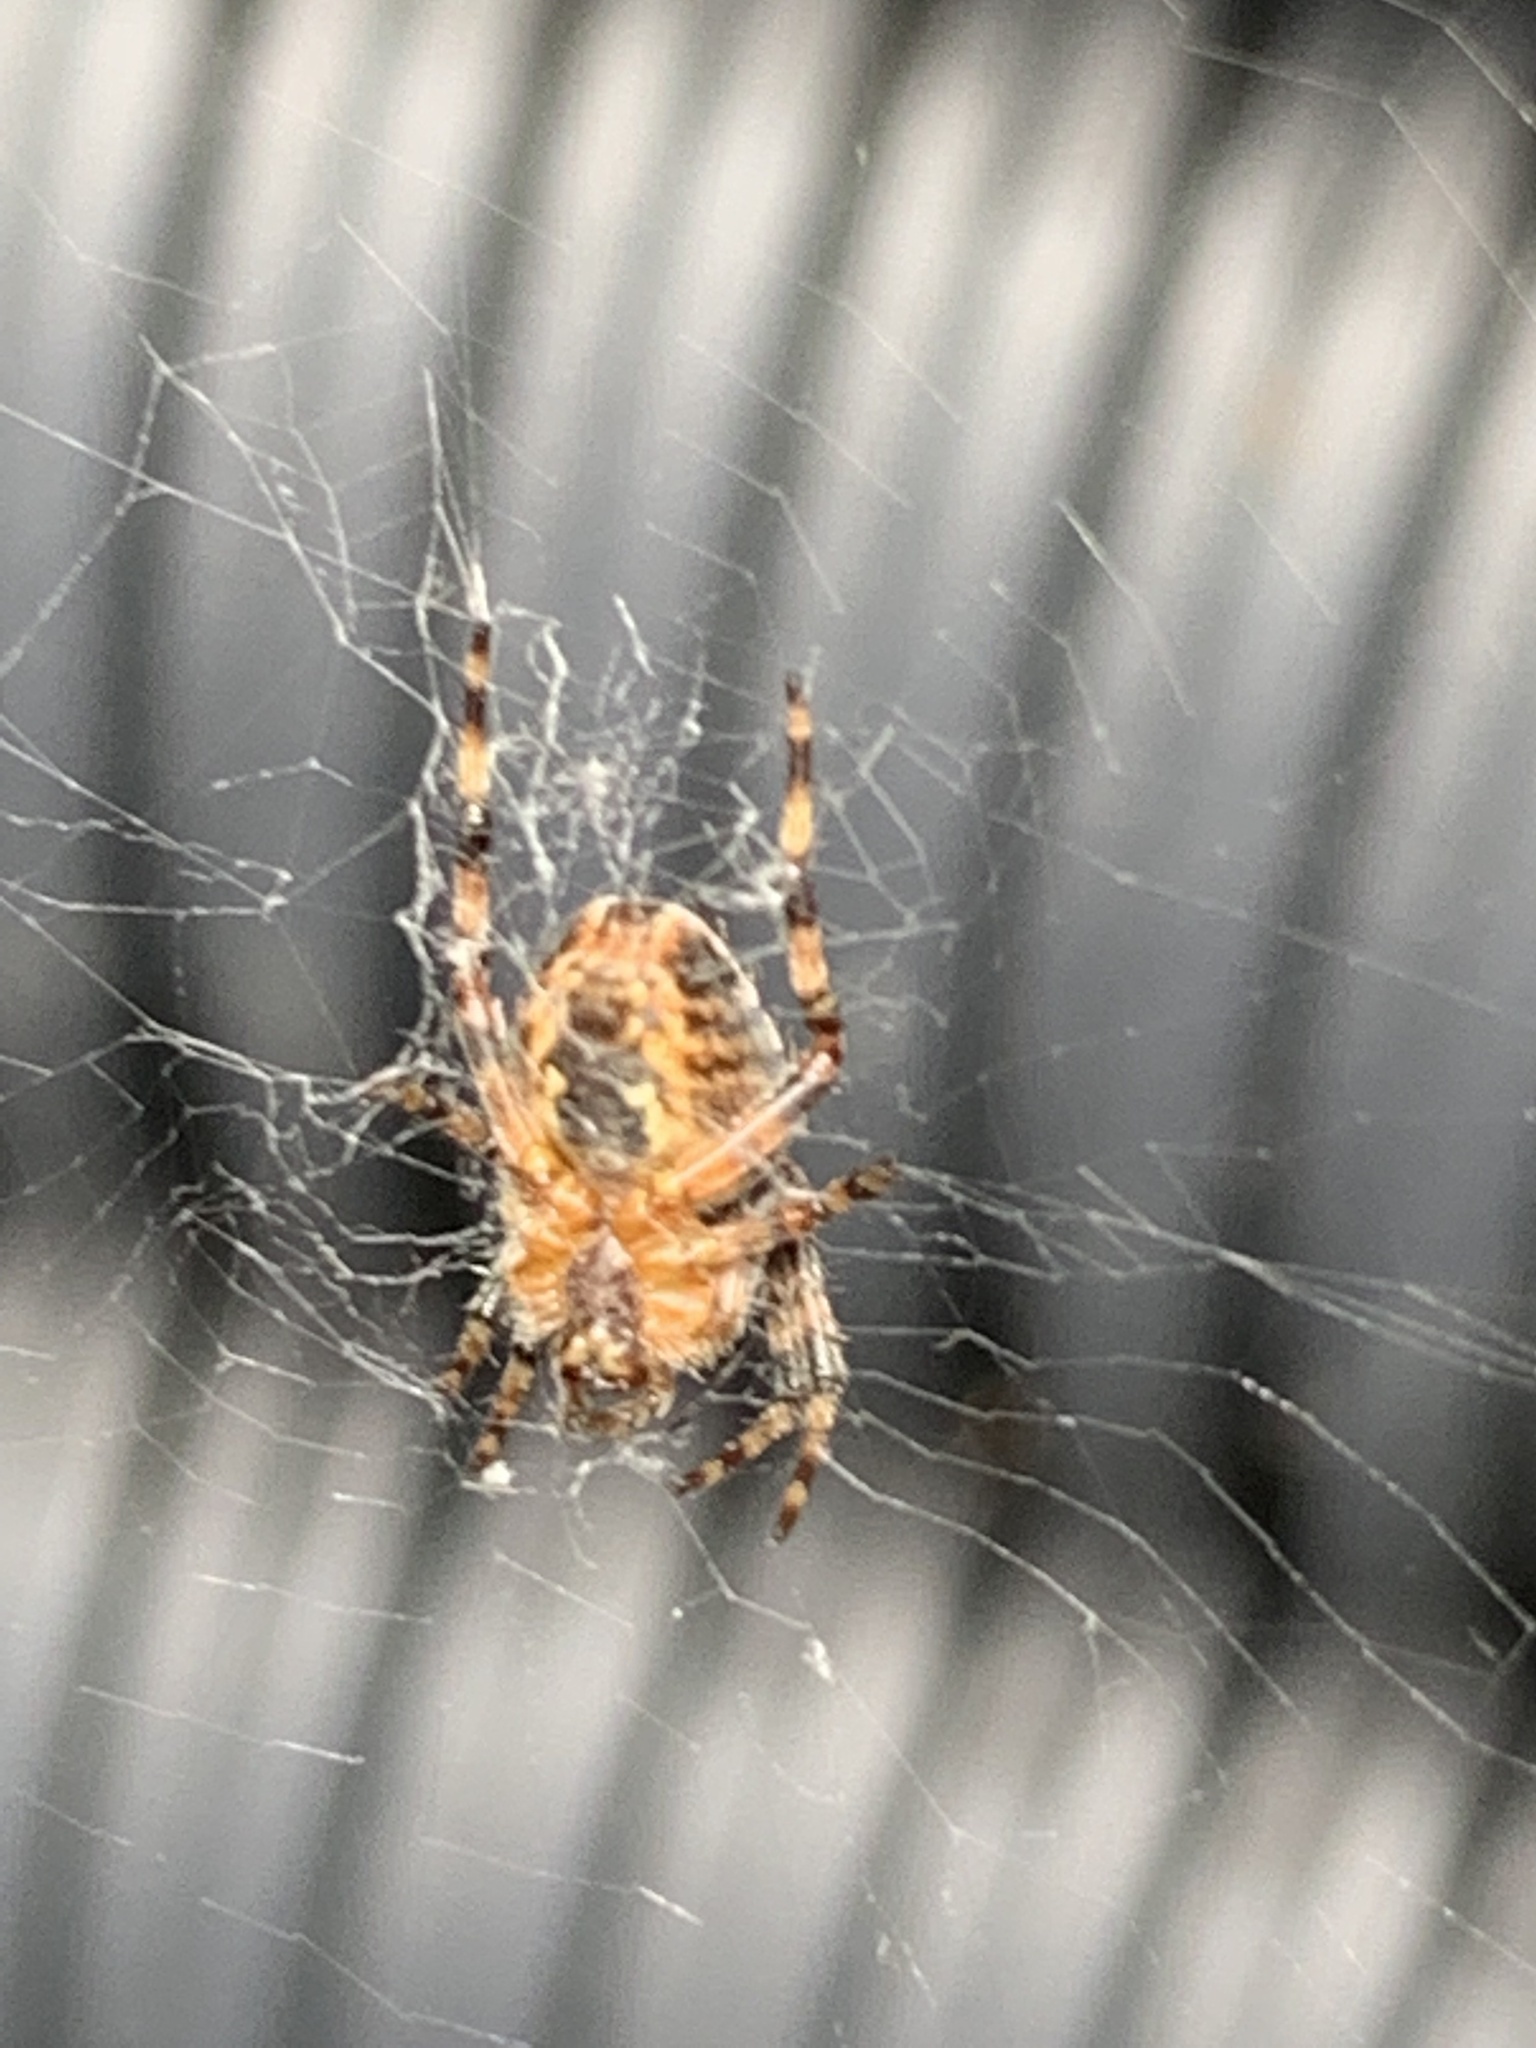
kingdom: Animalia
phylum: Arthropoda
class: Arachnida
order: Araneae
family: Araneidae
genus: Araneus
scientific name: Araneus diadematus
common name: Cross orbweaver
